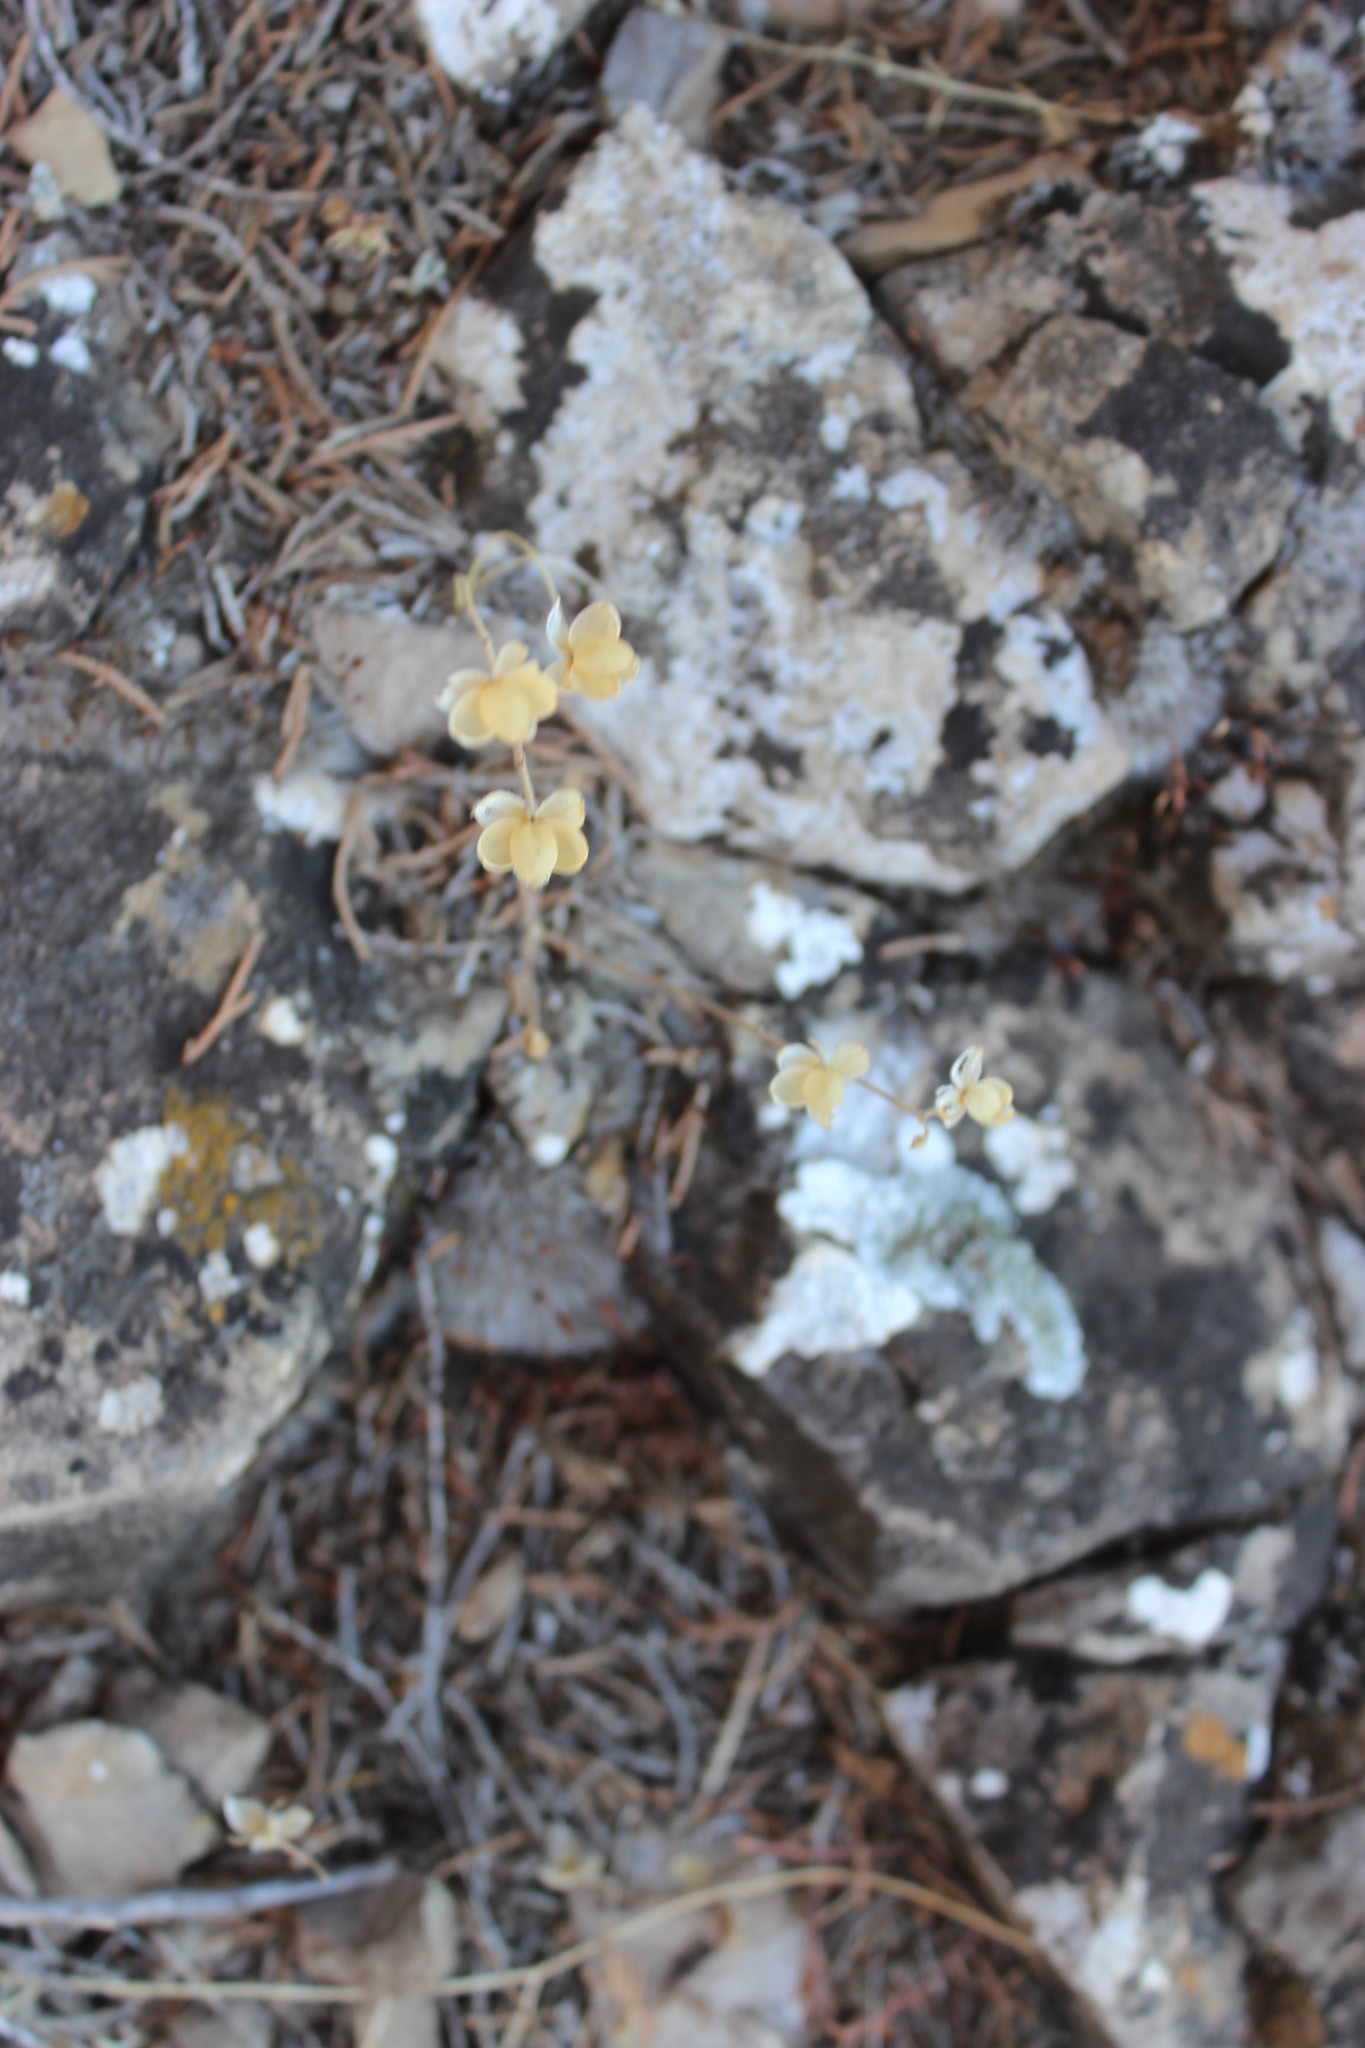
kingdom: Plantae
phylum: Tracheophyta
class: Magnoliopsida
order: Malvales
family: Cistaceae
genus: Helianthemum
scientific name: Helianthemum salicifolium
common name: Willowleaf frostweed
